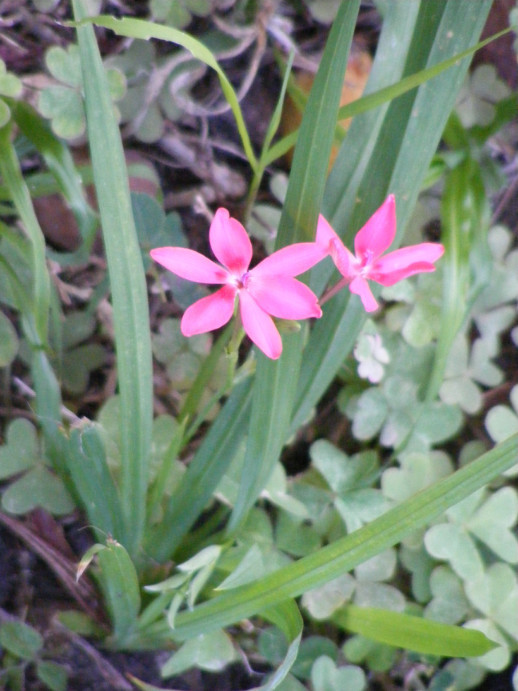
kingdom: Plantae
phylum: Tracheophyta
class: Liliopsida
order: Asparagales
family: Iridaceae
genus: Freesia
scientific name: Freesia laxa
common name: False freesia
